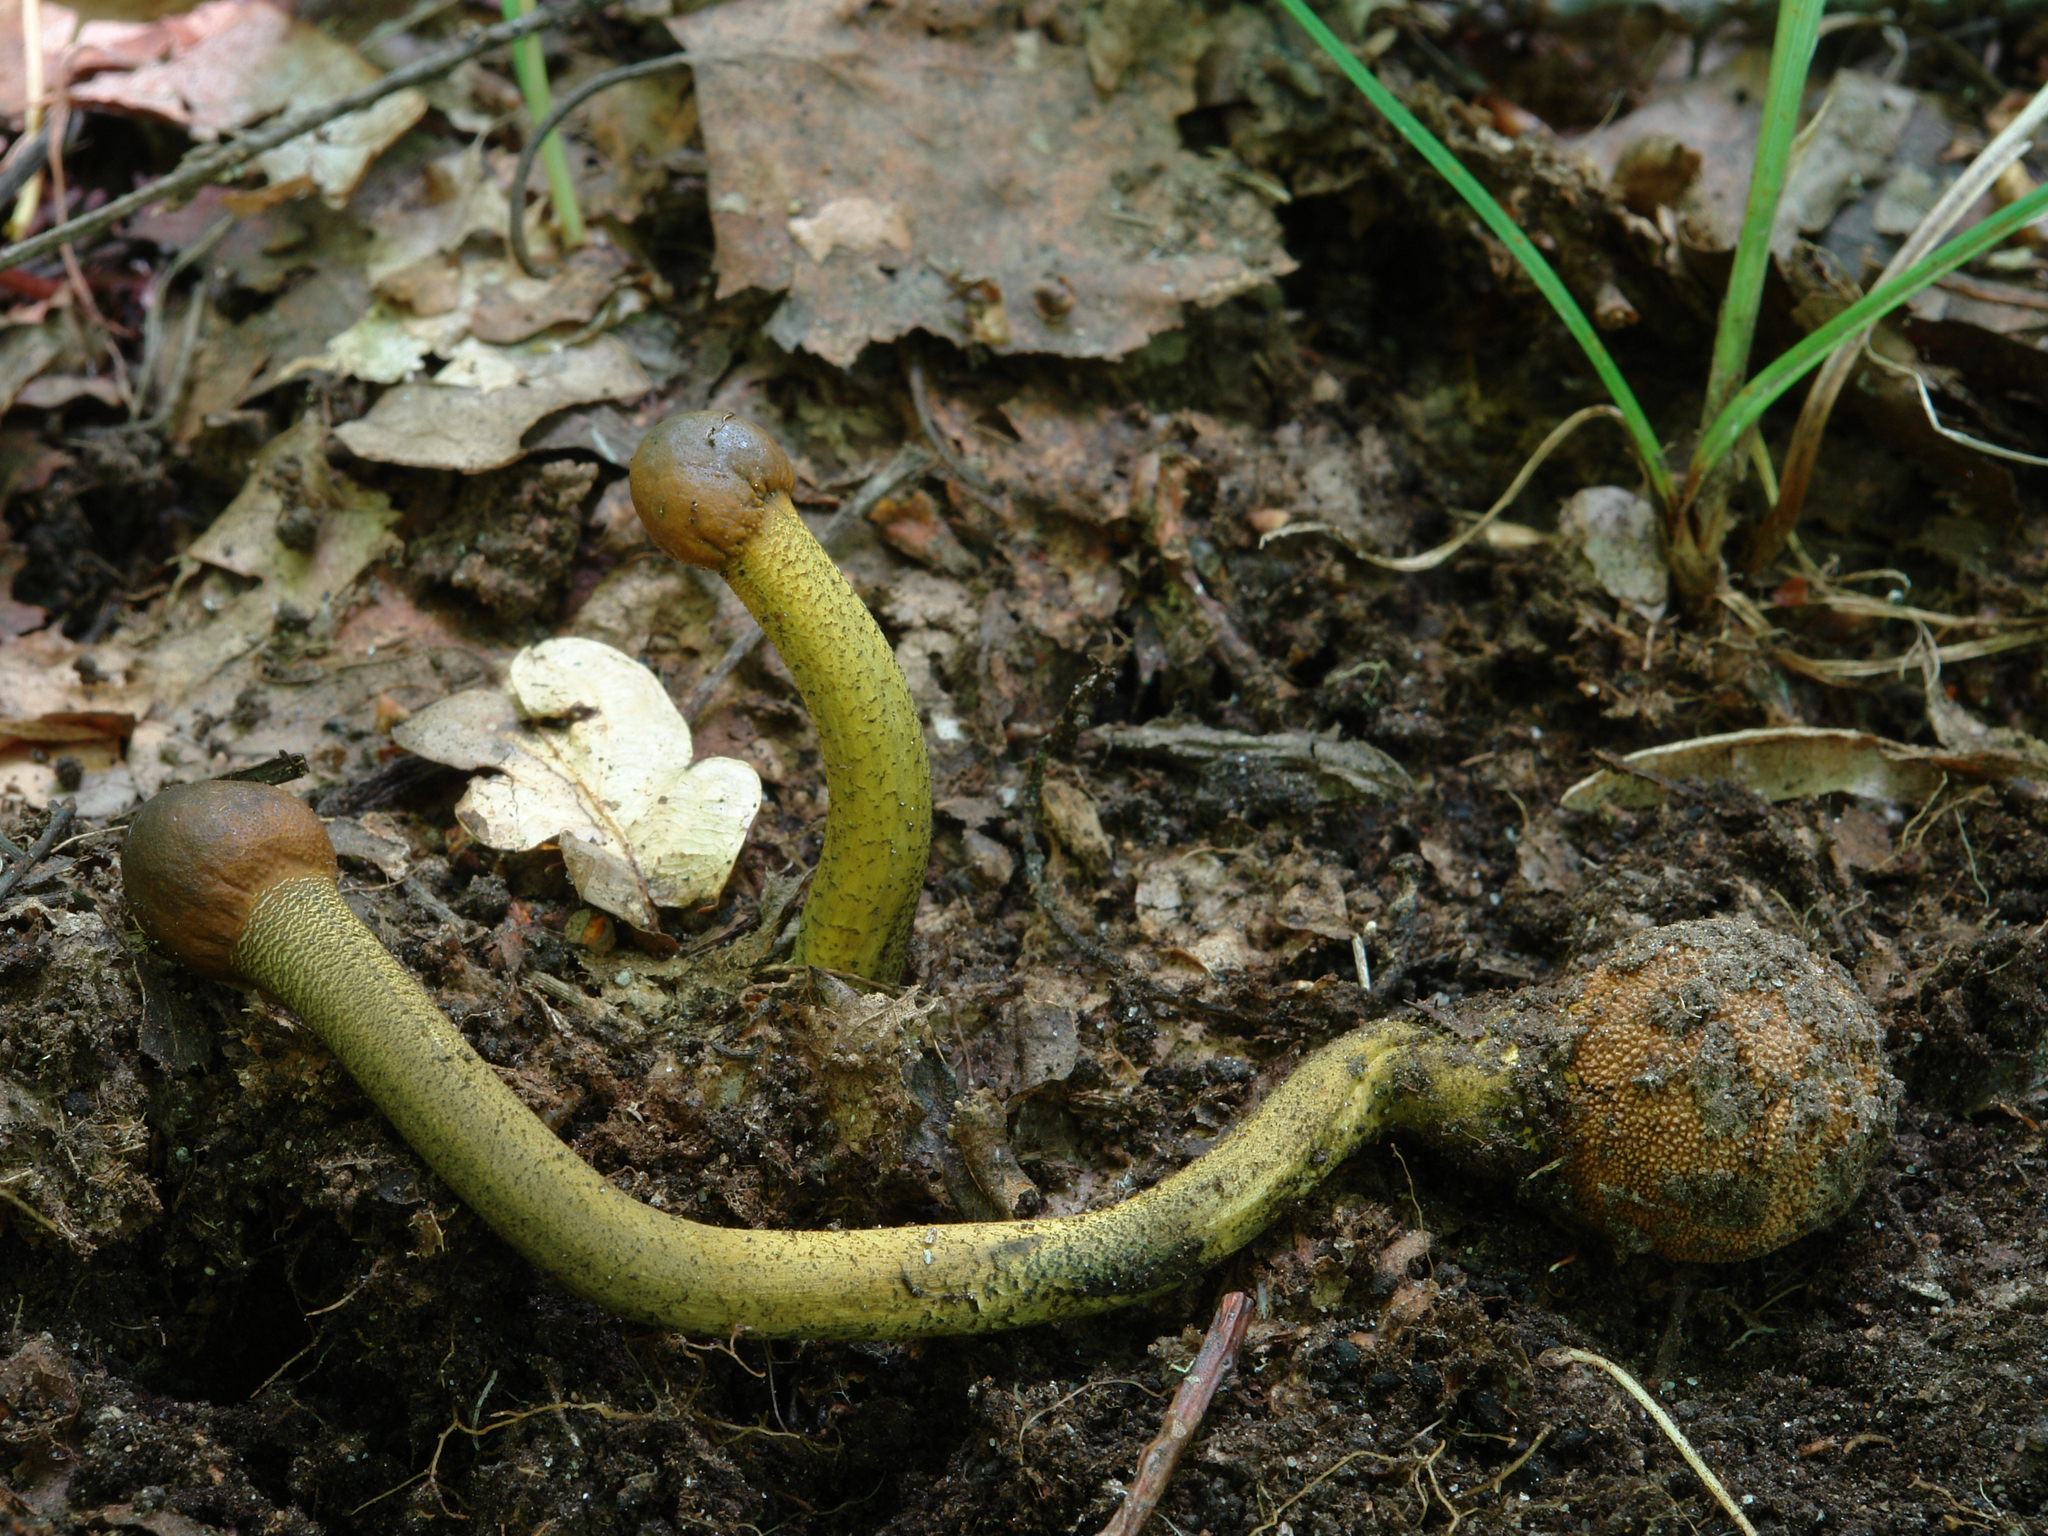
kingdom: Fungi
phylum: Ascomycota
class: Sordariomycetes
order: Hypocreales
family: Ophiocordycipitaceae
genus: Tolypocladium
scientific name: Tolypocladium capitatum
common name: Capitate truffleclub
